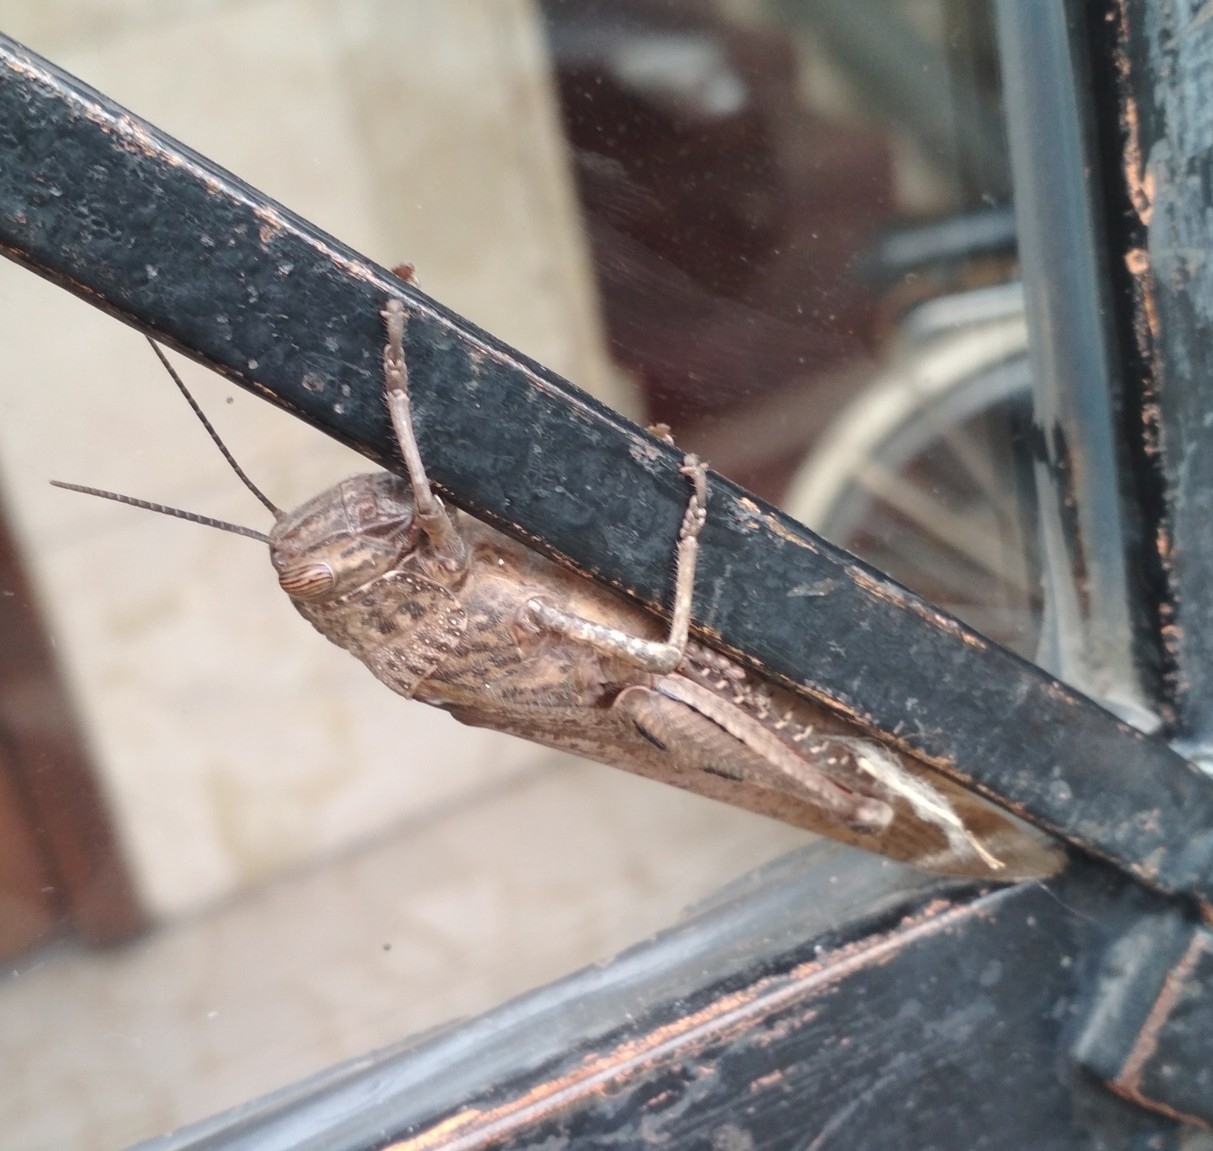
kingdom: Animalia
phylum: Arthropoda
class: Insecta
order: Orthoptera
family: Acrididae
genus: Anacridium
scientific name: Anacridium aegyptium
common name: Egyptian grasshopper
